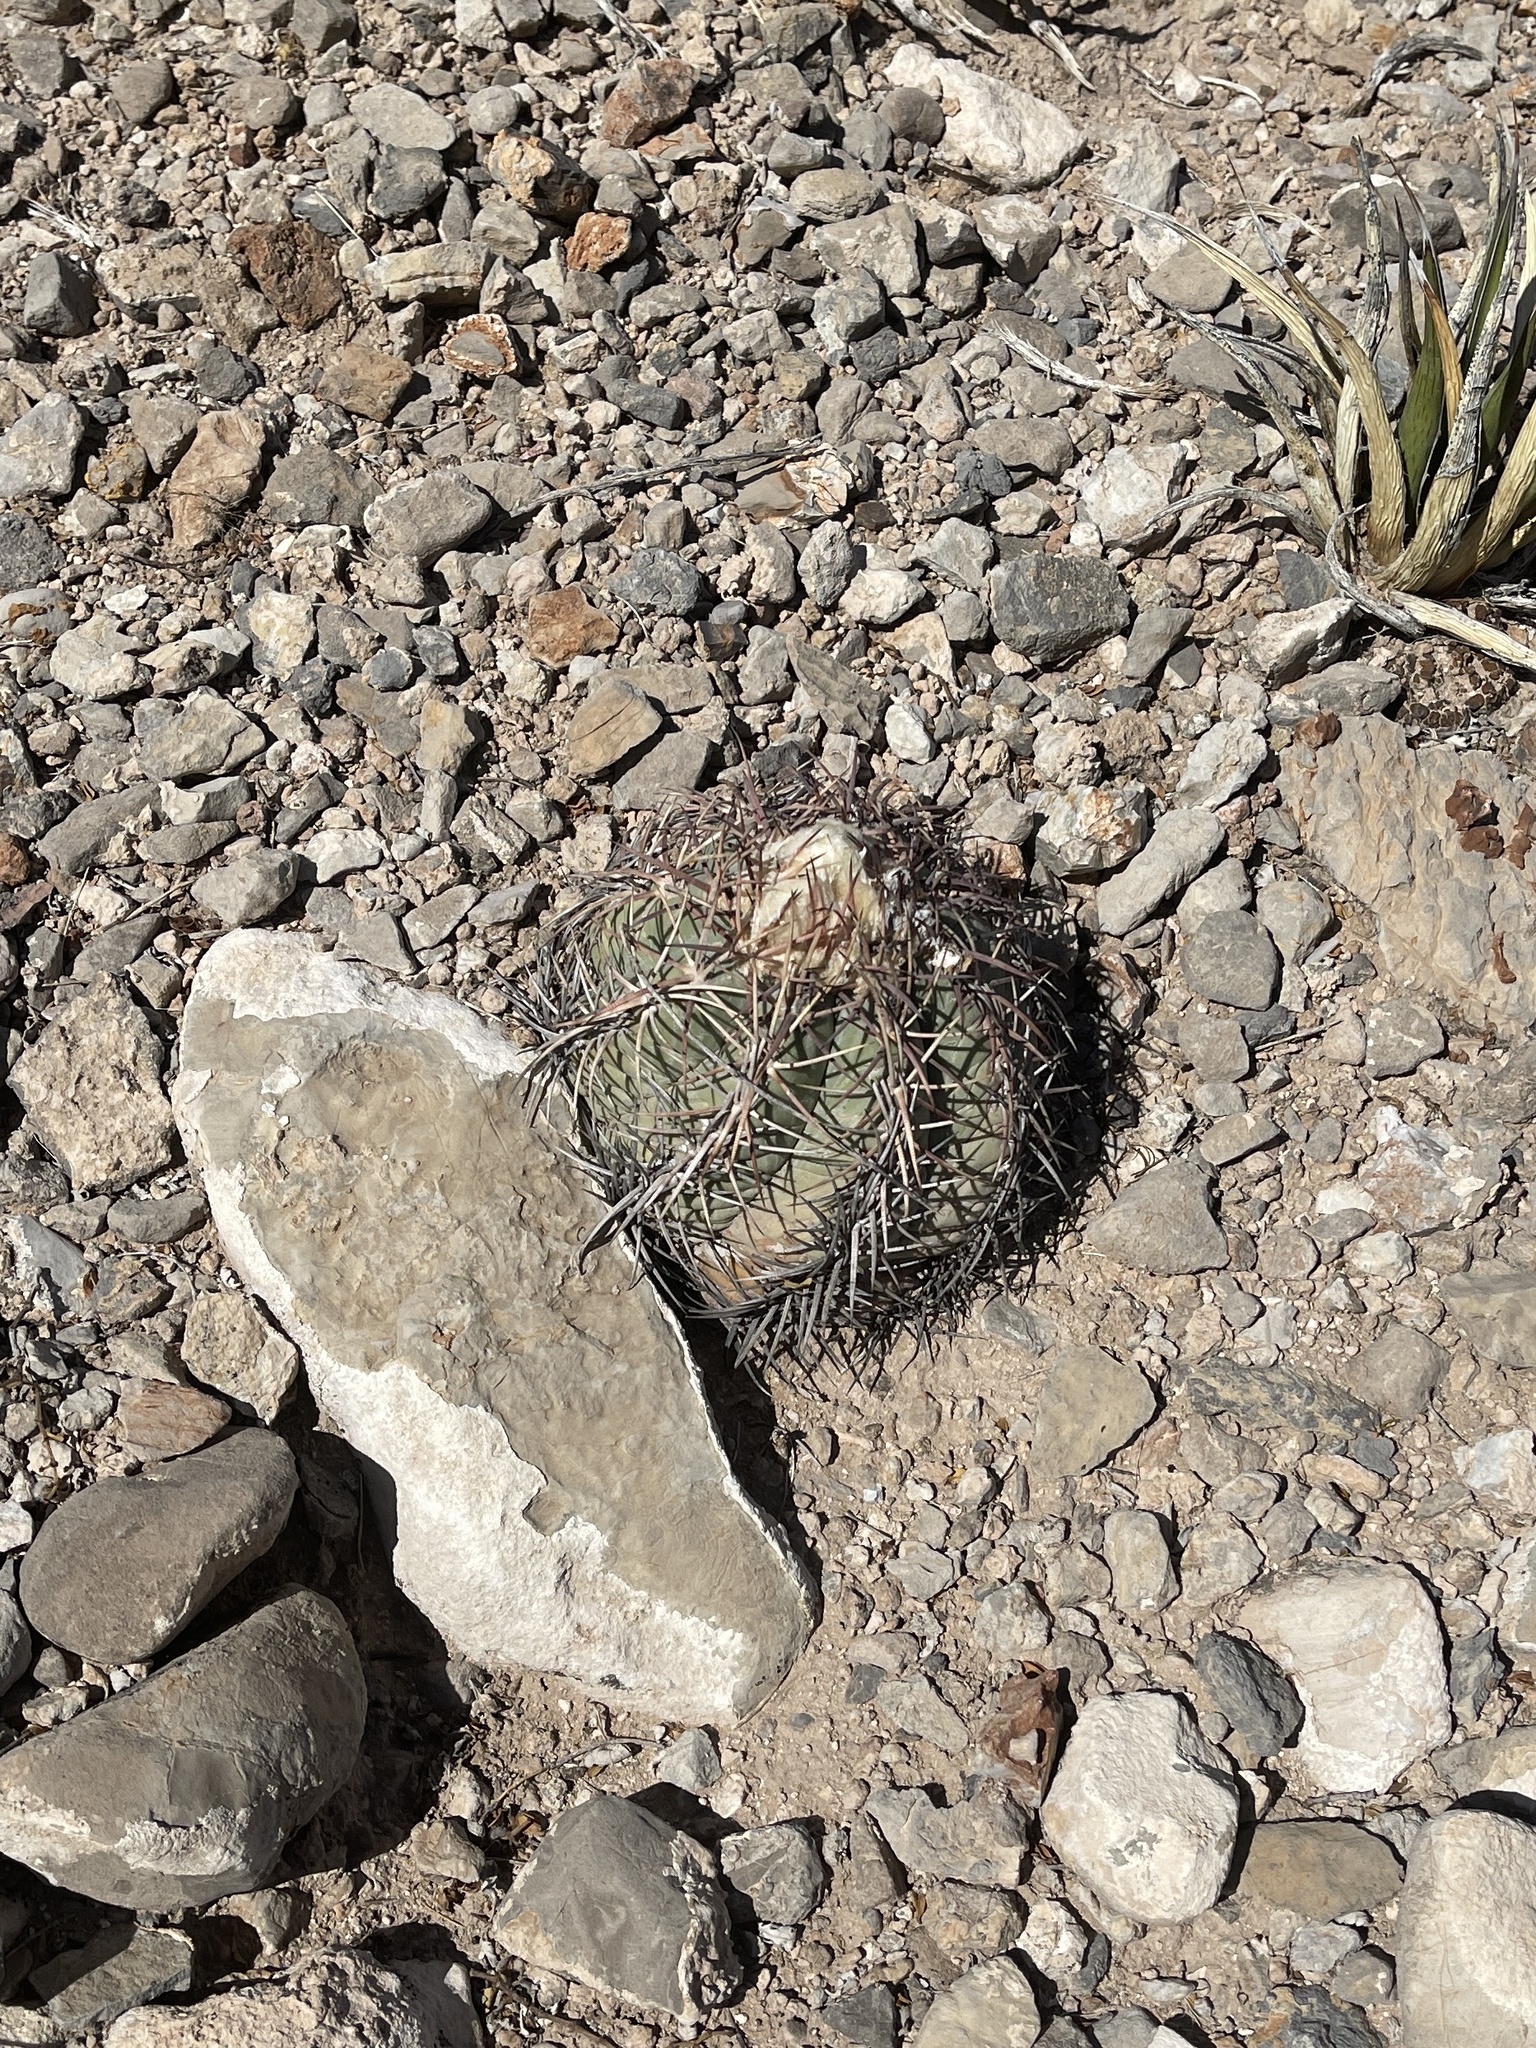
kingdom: Plantae
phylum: Tracheophyta
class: Magnoliopsida
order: Caryophyllales
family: Cactaceae
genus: Echinocactus
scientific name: Echinocactus horizonthalonius
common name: Devilshead
